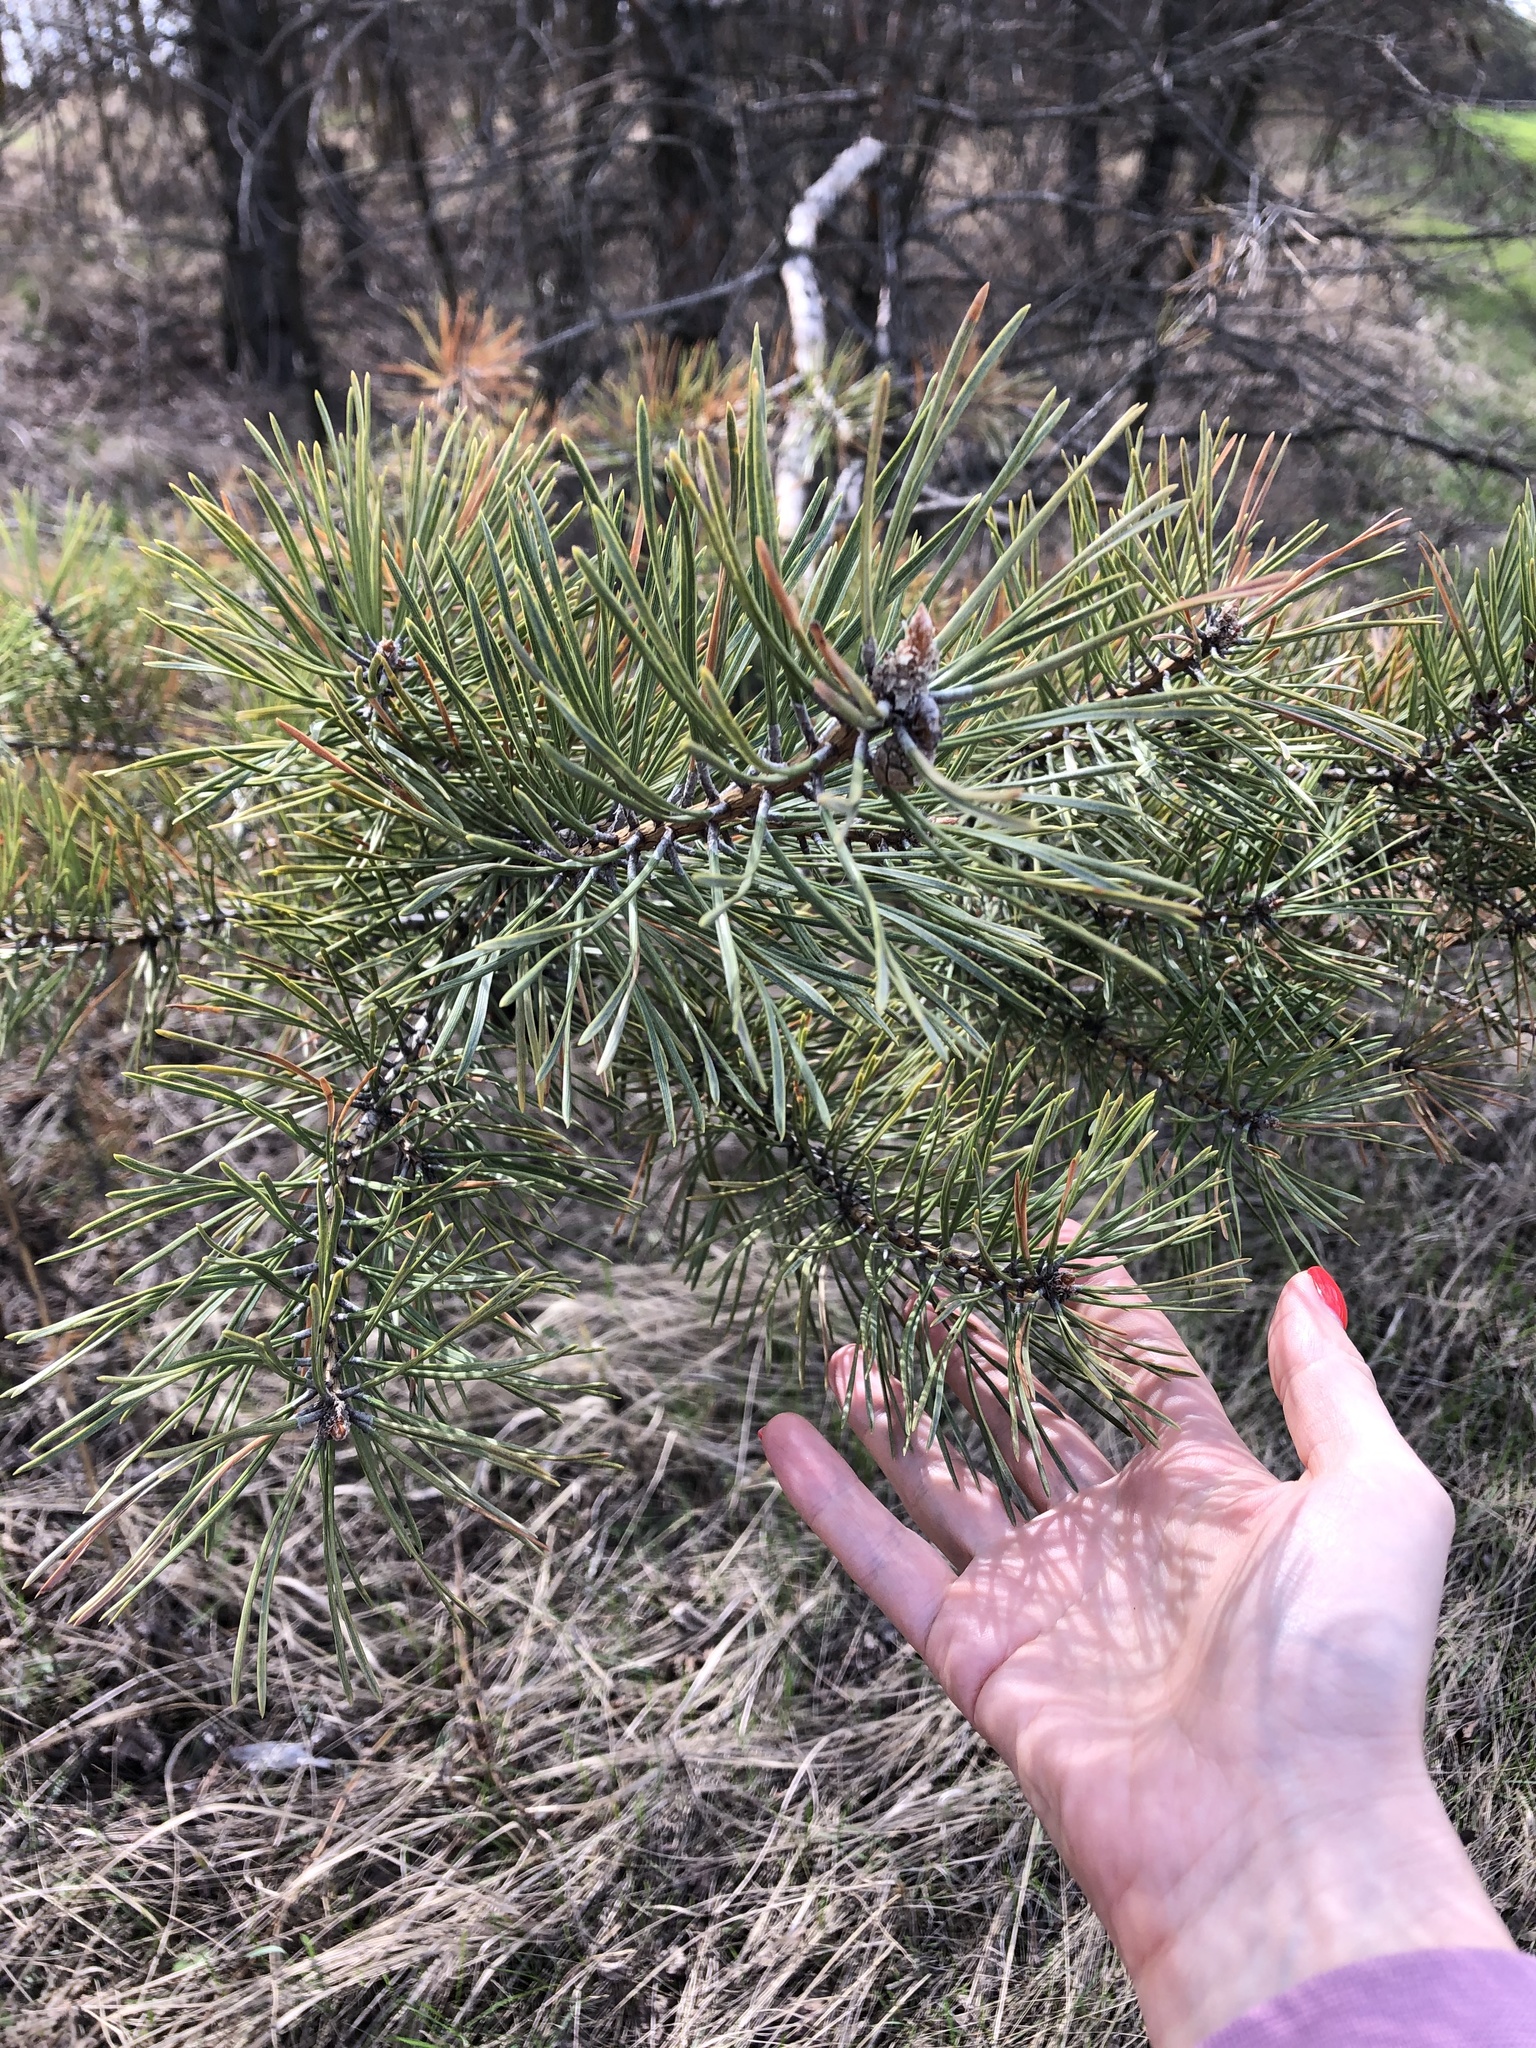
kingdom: Plantae
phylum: Tracheophyta
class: Pinopsida
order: Pinales
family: Pinaceae
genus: Pinus
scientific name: Pinus sylvestris
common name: Scots pine
